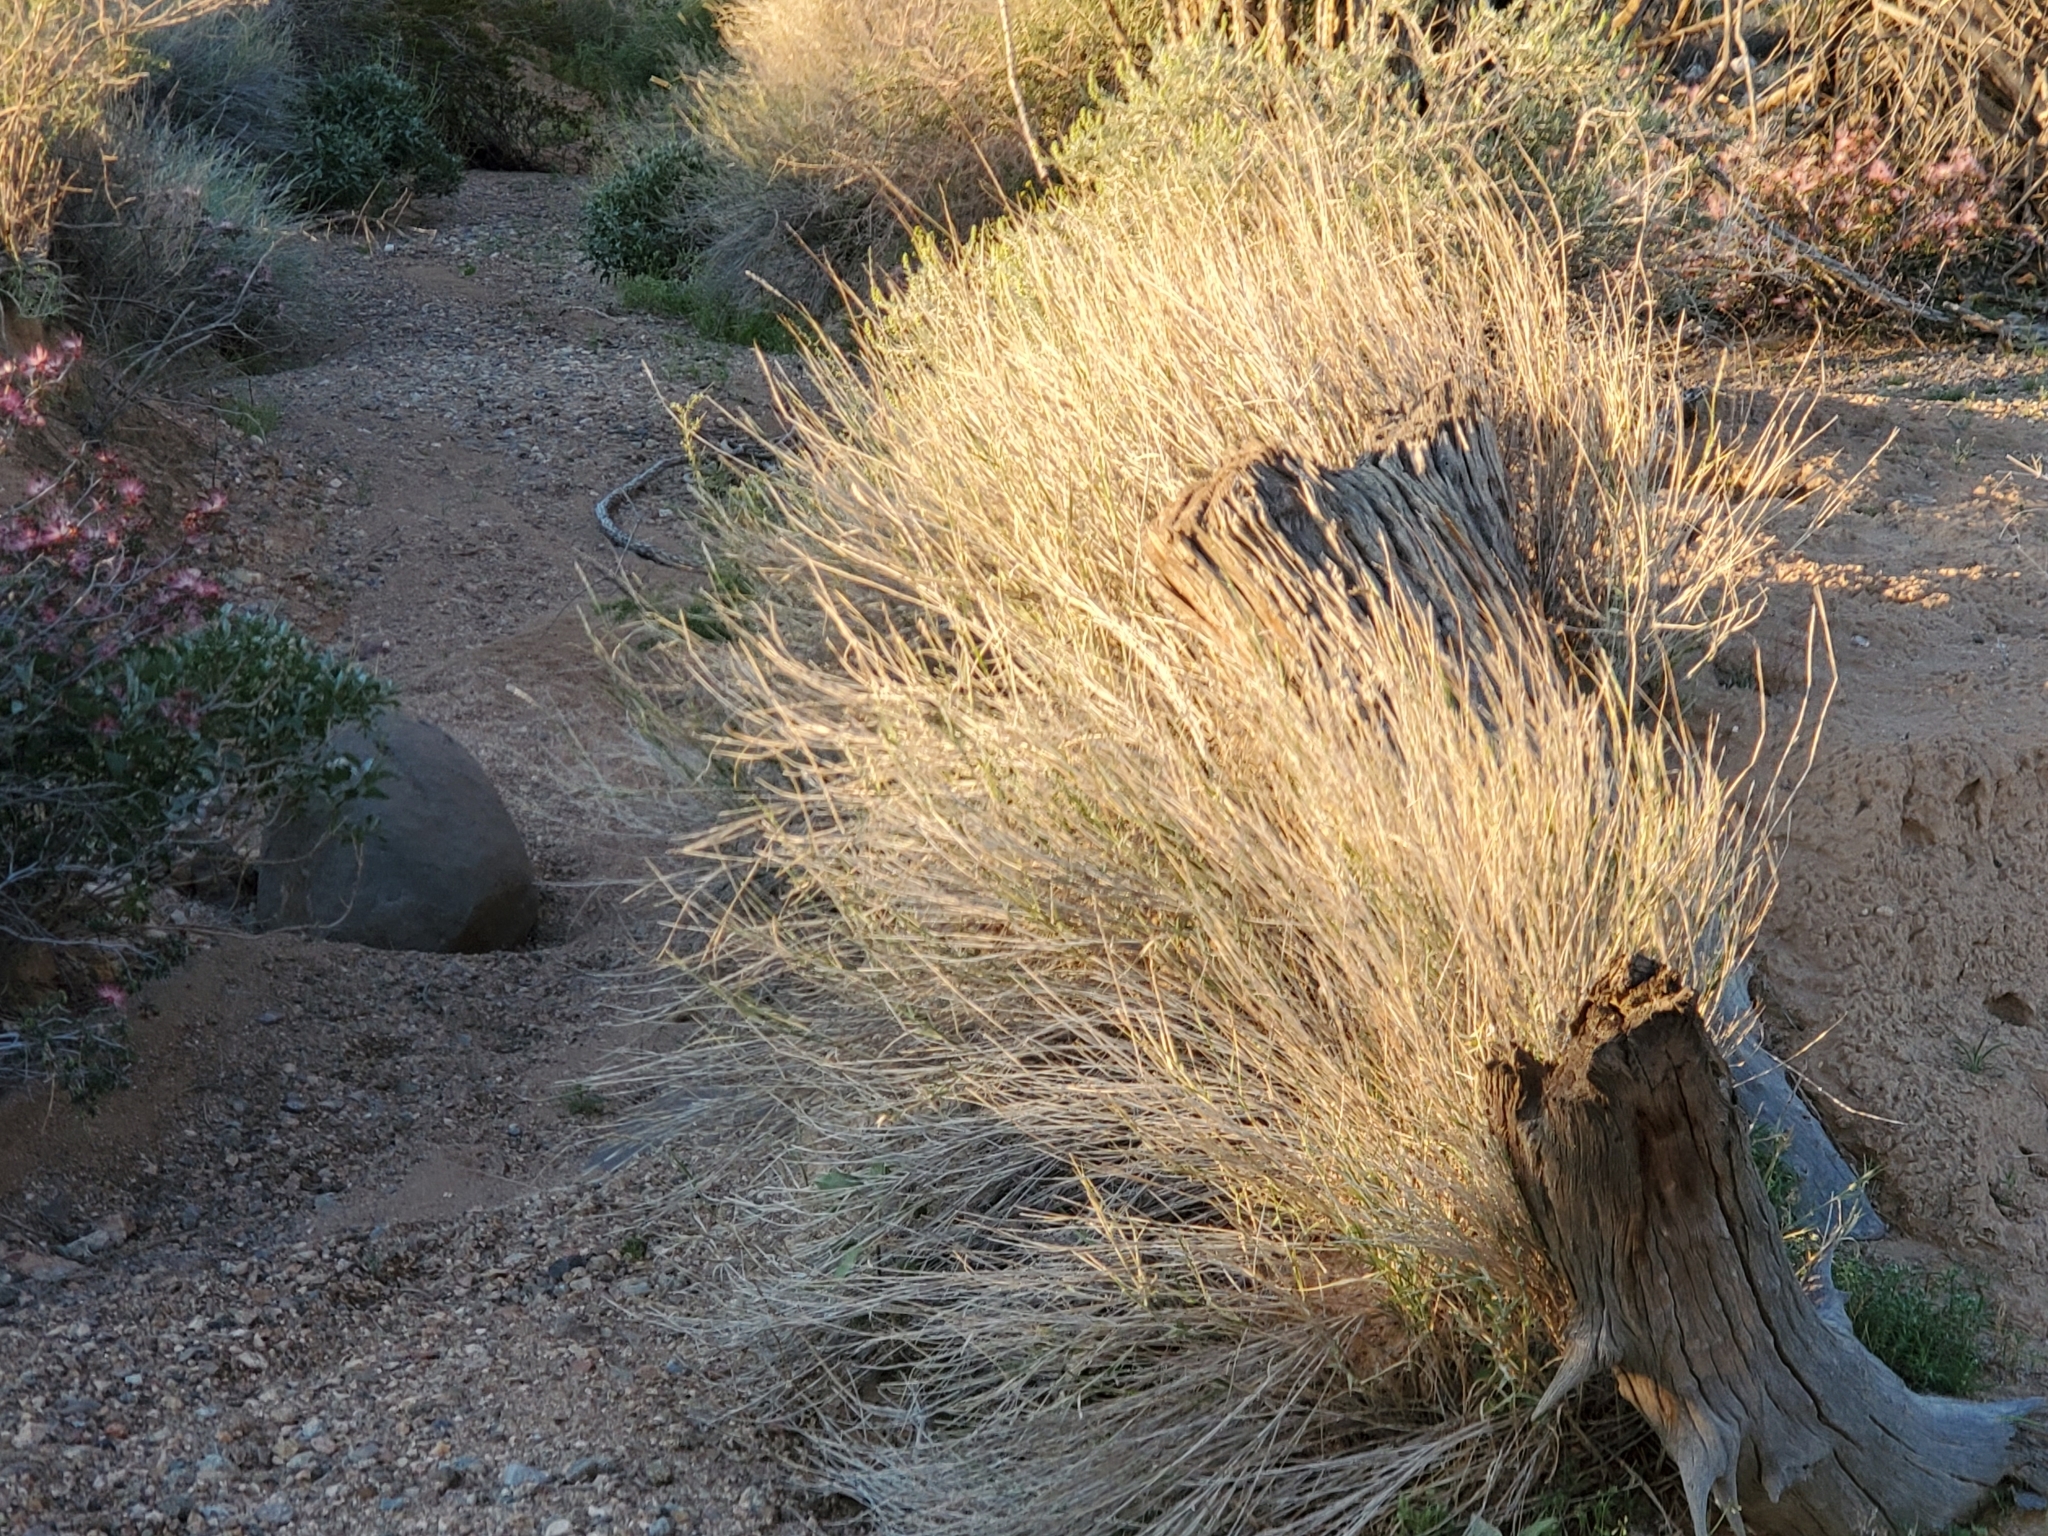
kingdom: Plantae
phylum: Tracheophyta
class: Liliopsida
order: Poales
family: Poaceae
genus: Hilaria
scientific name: Hilaria rigida
